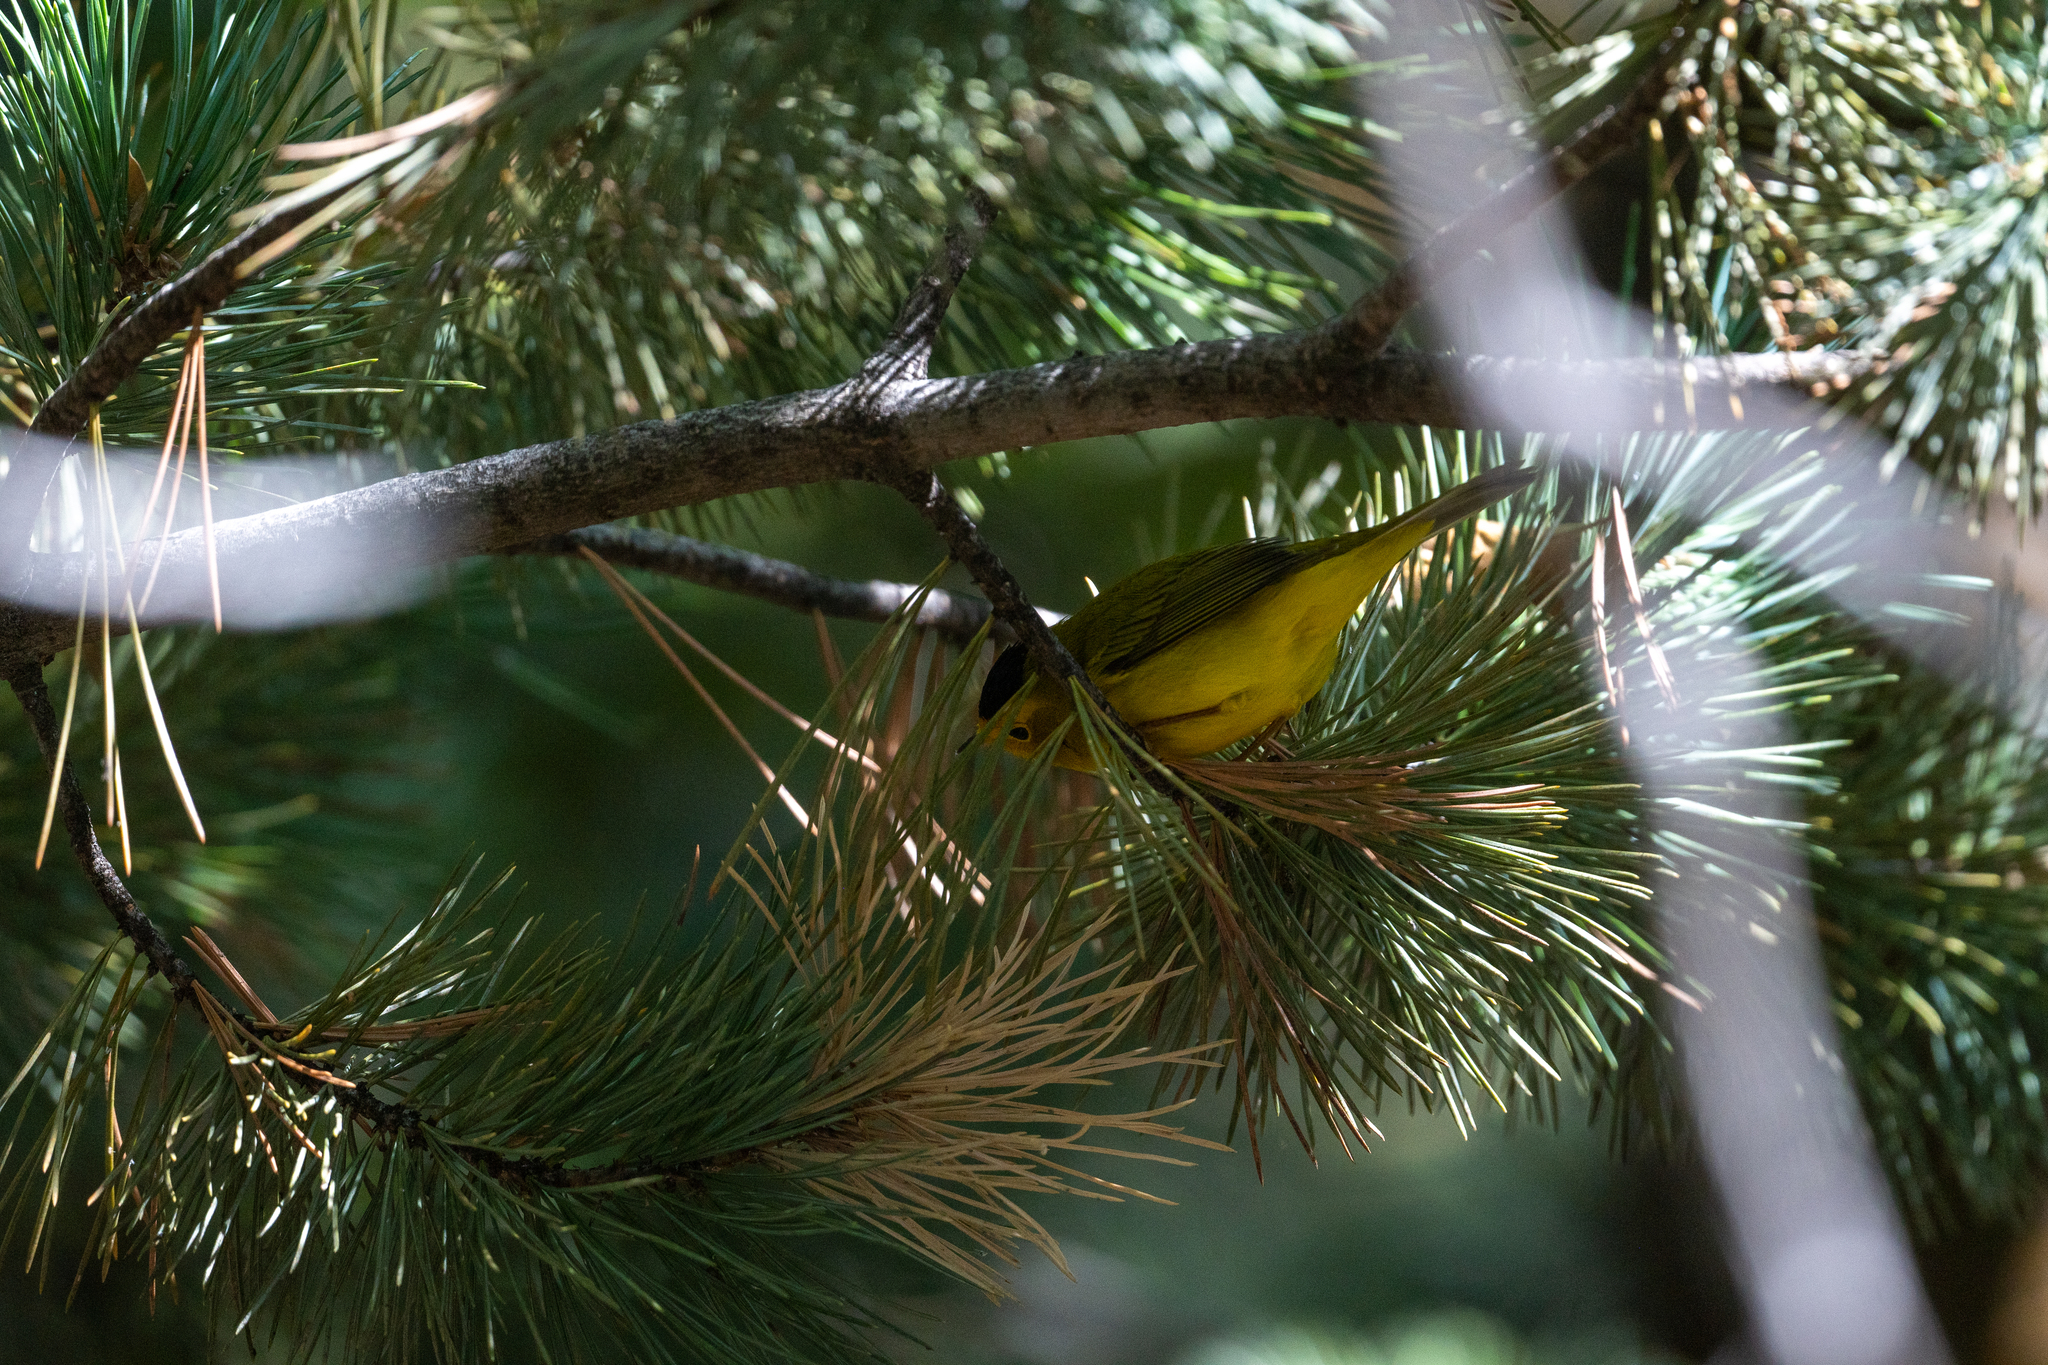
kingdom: Animalia
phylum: Chordata
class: Aves
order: Passeriformes
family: Parulidae
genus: Cardellina
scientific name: Cardellina pusilla
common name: Wilson's warbler
